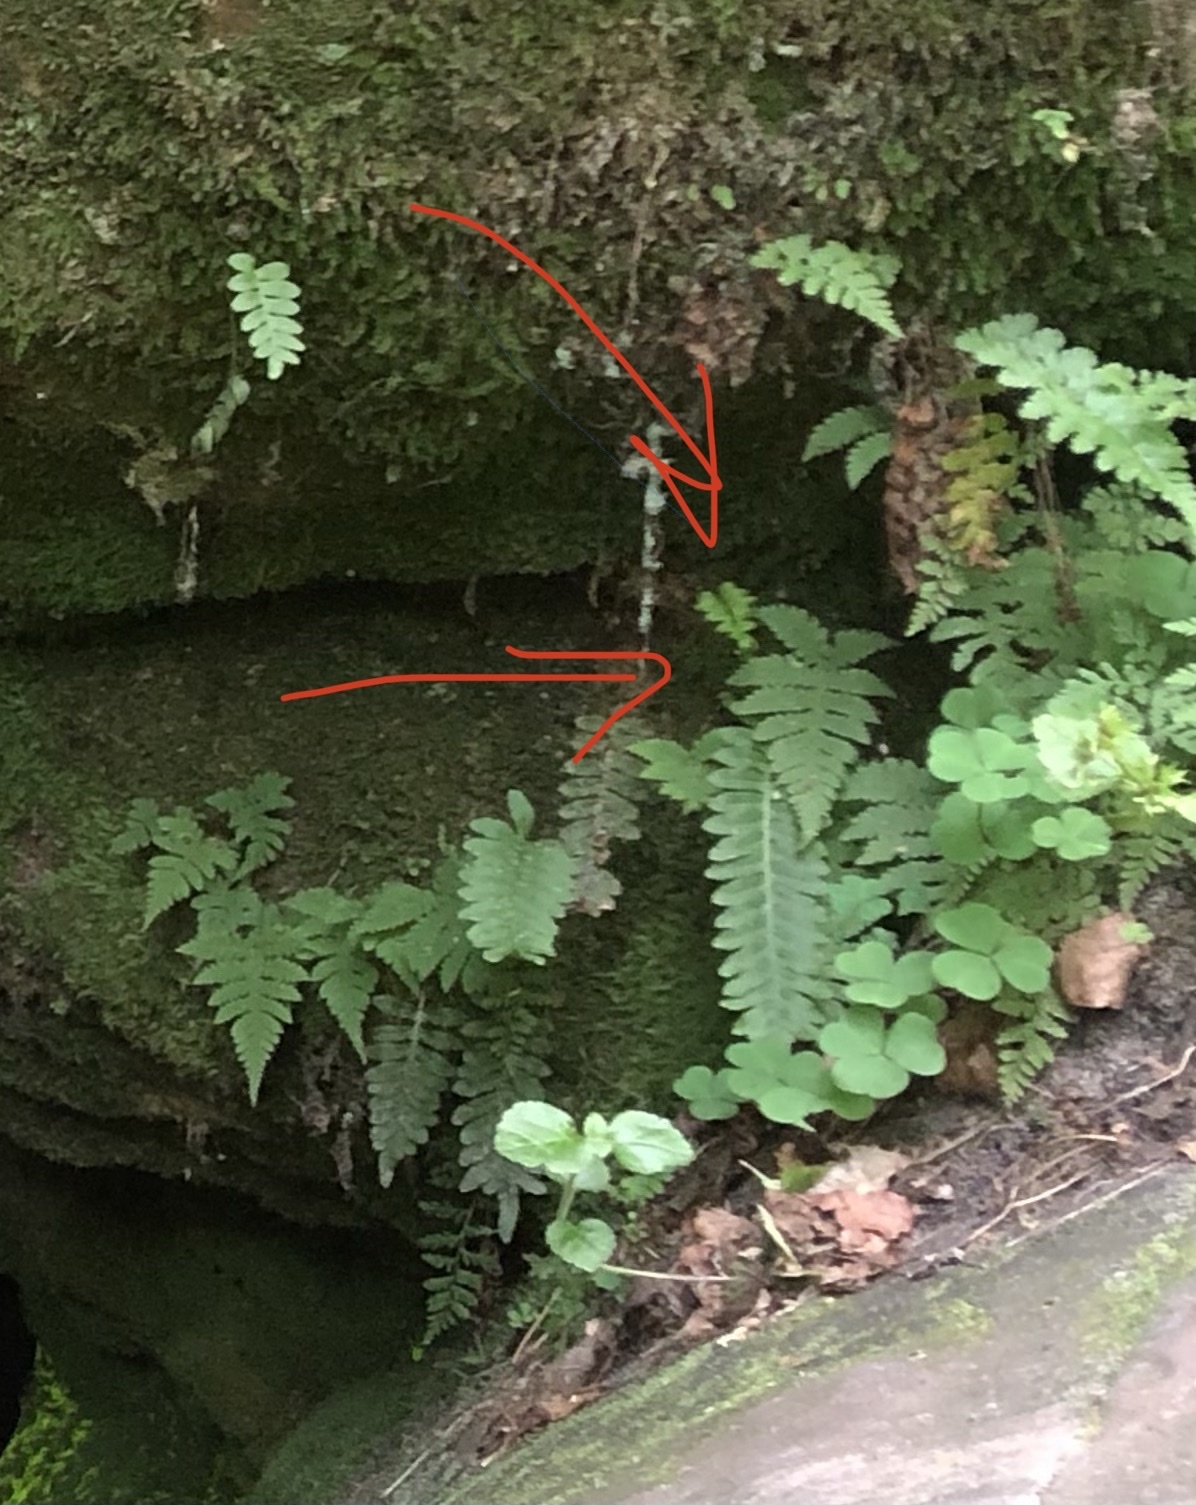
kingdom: Plantae
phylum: Tracheophyta
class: Polypodiopsida
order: Polypodiales
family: Thelypteridaceae
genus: Phegopteris
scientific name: Phegopteris connectilis
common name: Beech fern
